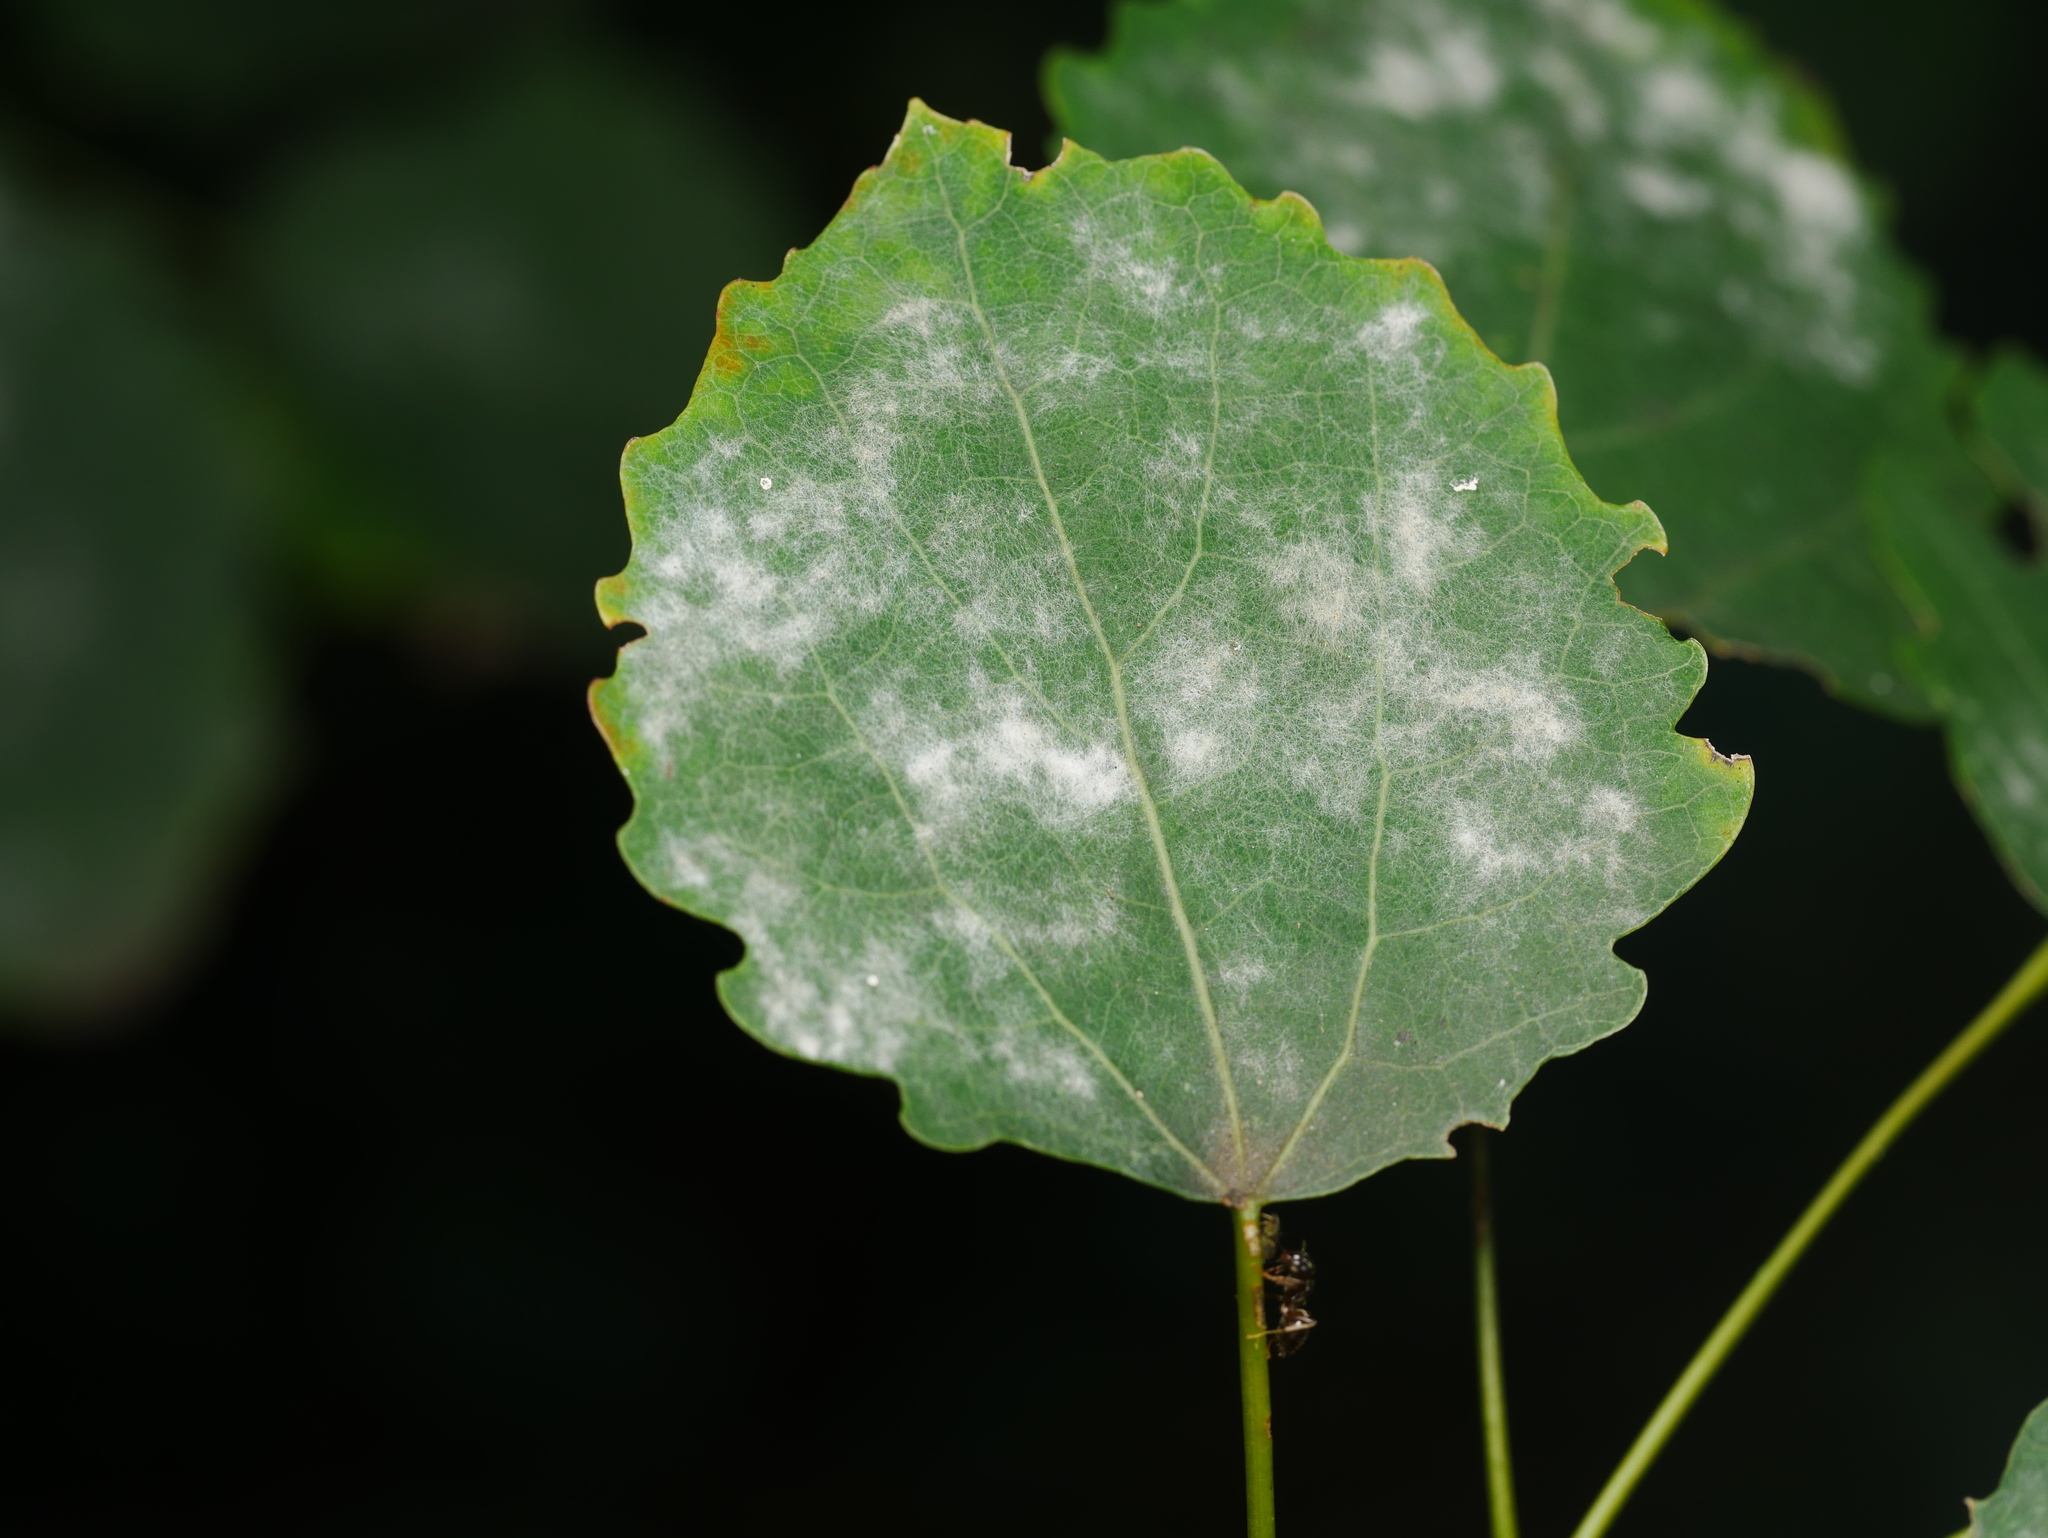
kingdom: Fungi
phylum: Ascomycota
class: Leotiomycetes
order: Helotiales
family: Erysiphaceae
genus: Erysiphe
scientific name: Erysiphe adunca
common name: Willow mildew
